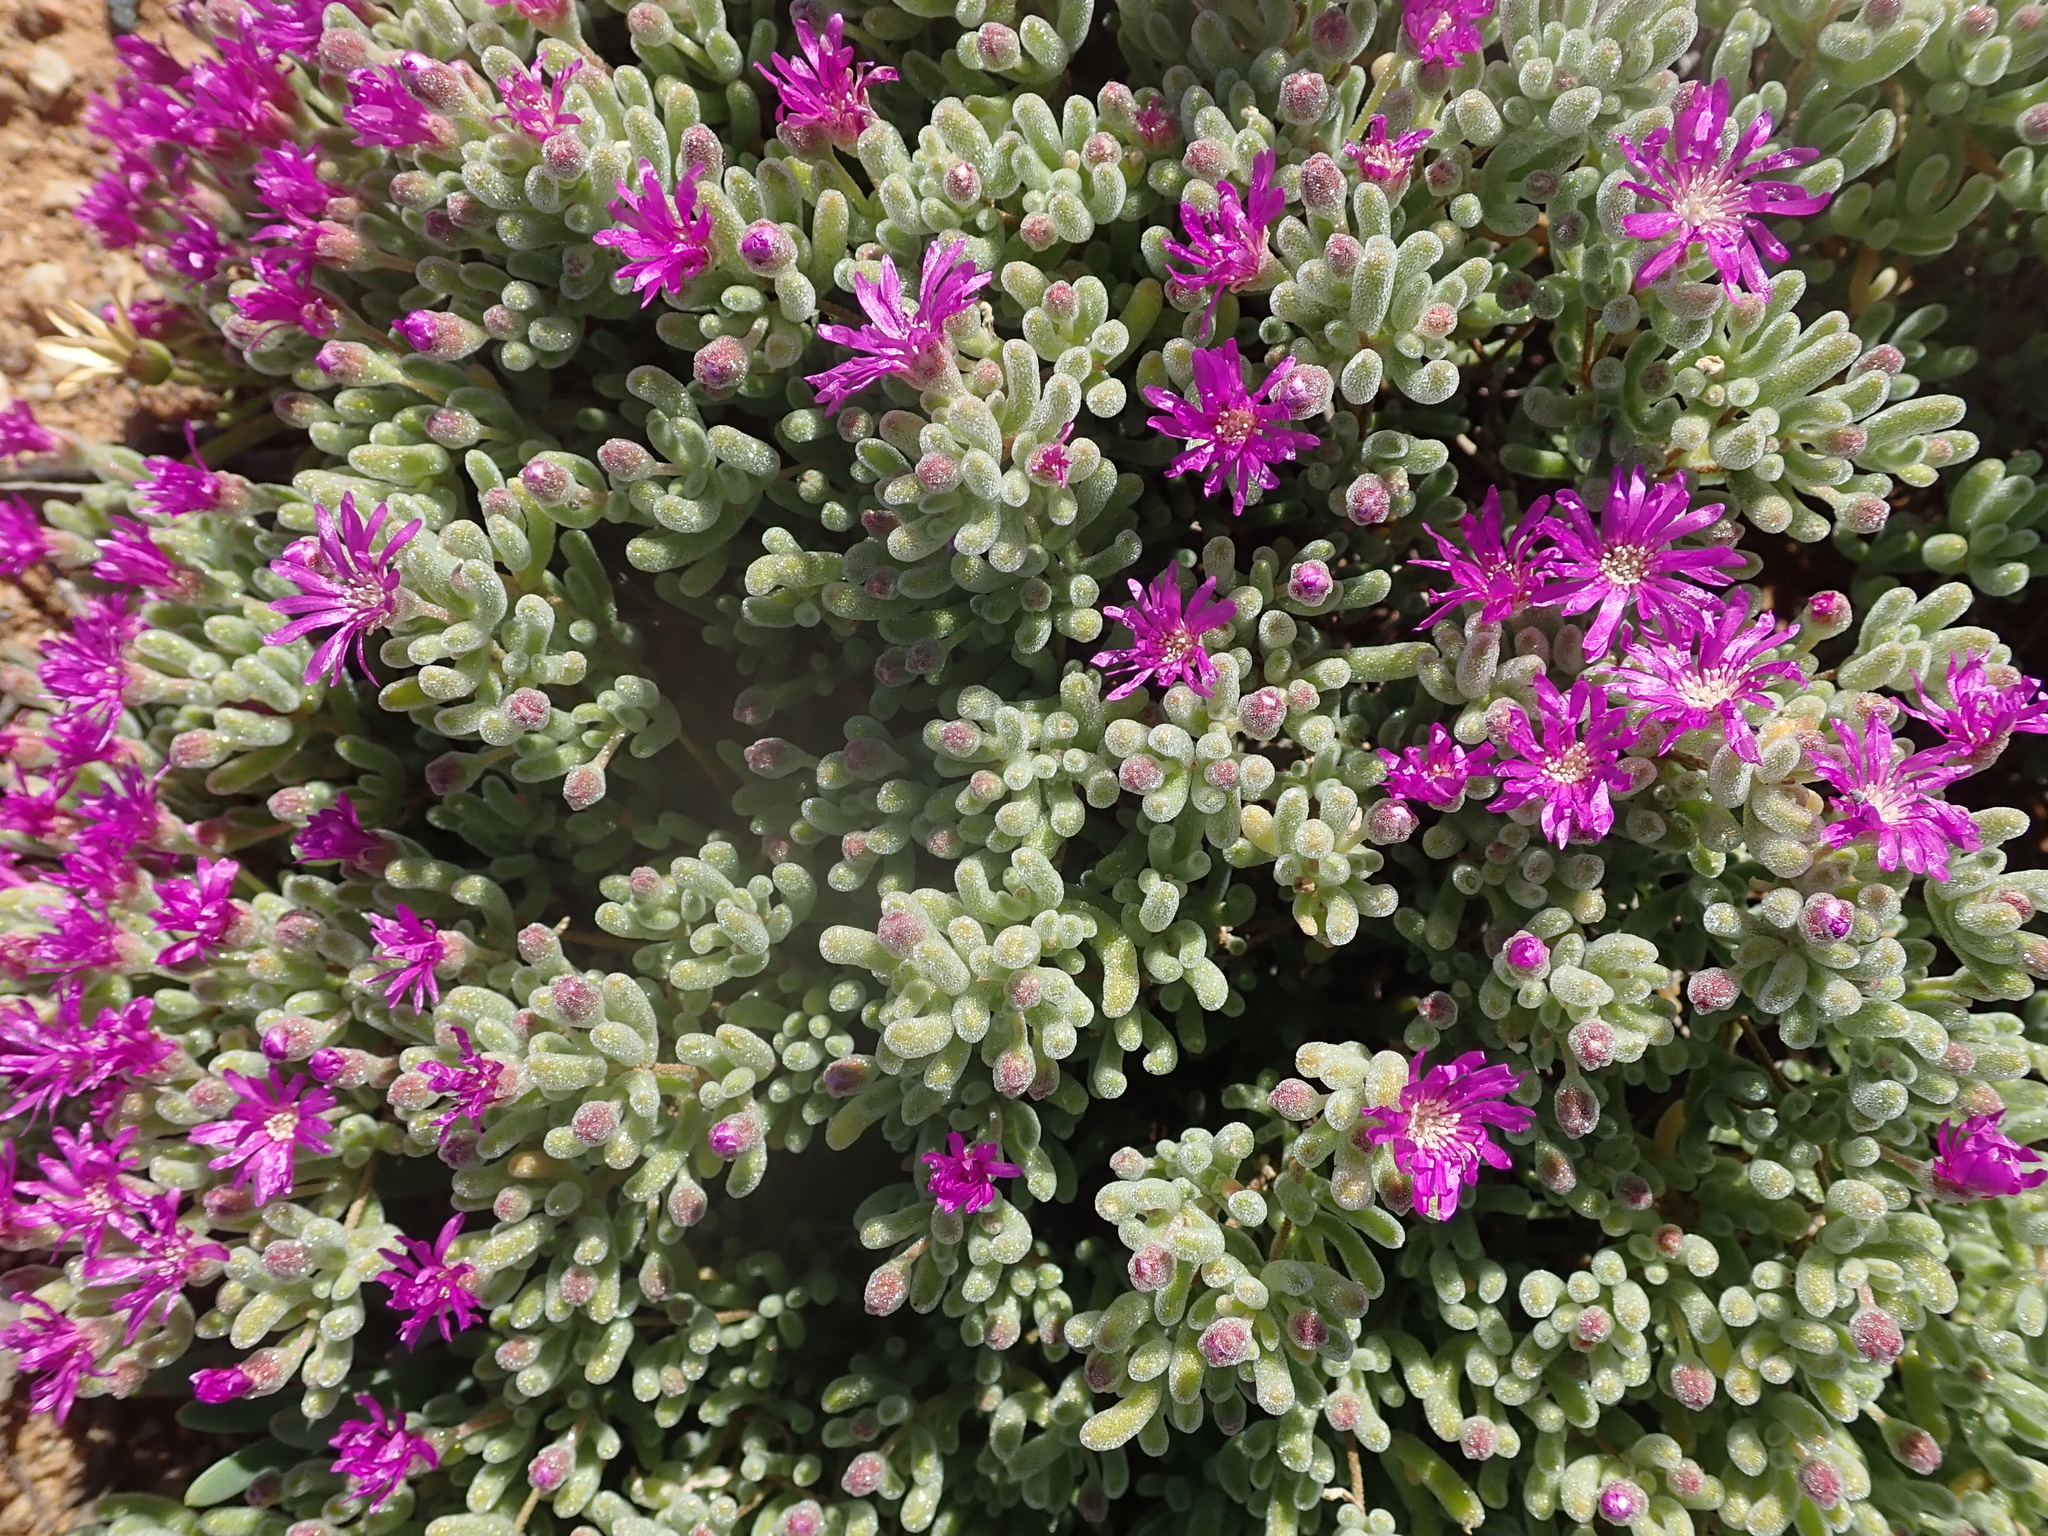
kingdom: Plantae
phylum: Tracheophyta
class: Magnoliopsida
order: Caryophyllales
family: Aizoaceae
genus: Drosanthemum
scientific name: Drosanthemum ramosissimum
